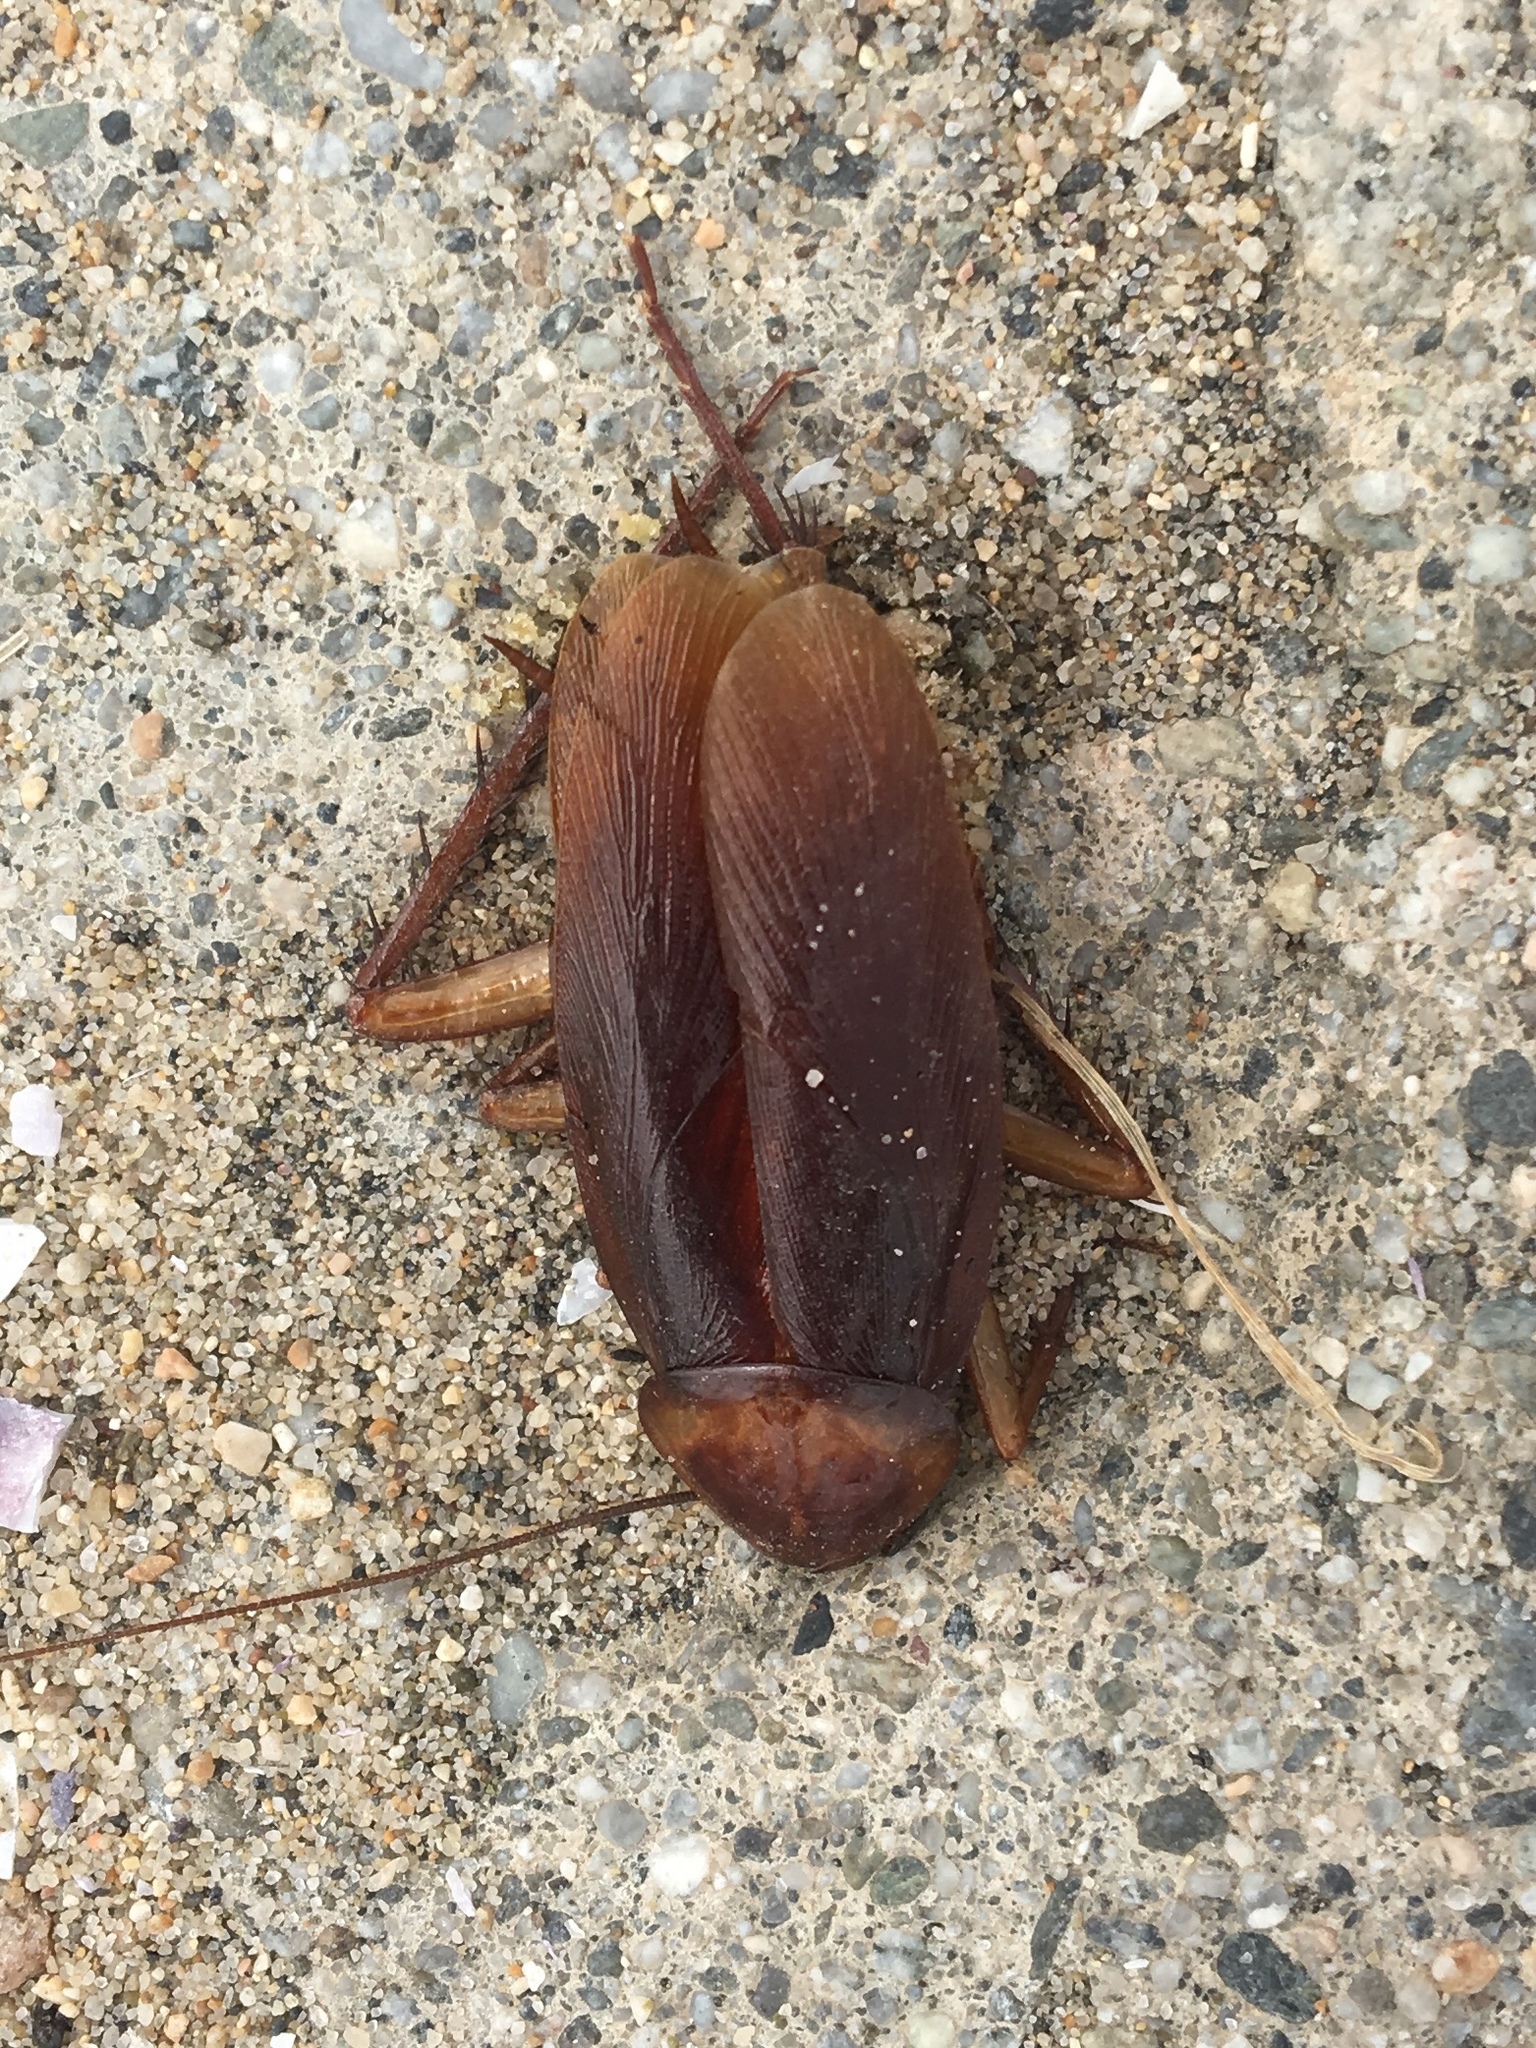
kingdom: Animalia
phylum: Arthropoda
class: Insecta
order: Blattodea
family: Blattidae
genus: Periplaneta
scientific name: Periplaneta americana
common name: American cockroach
